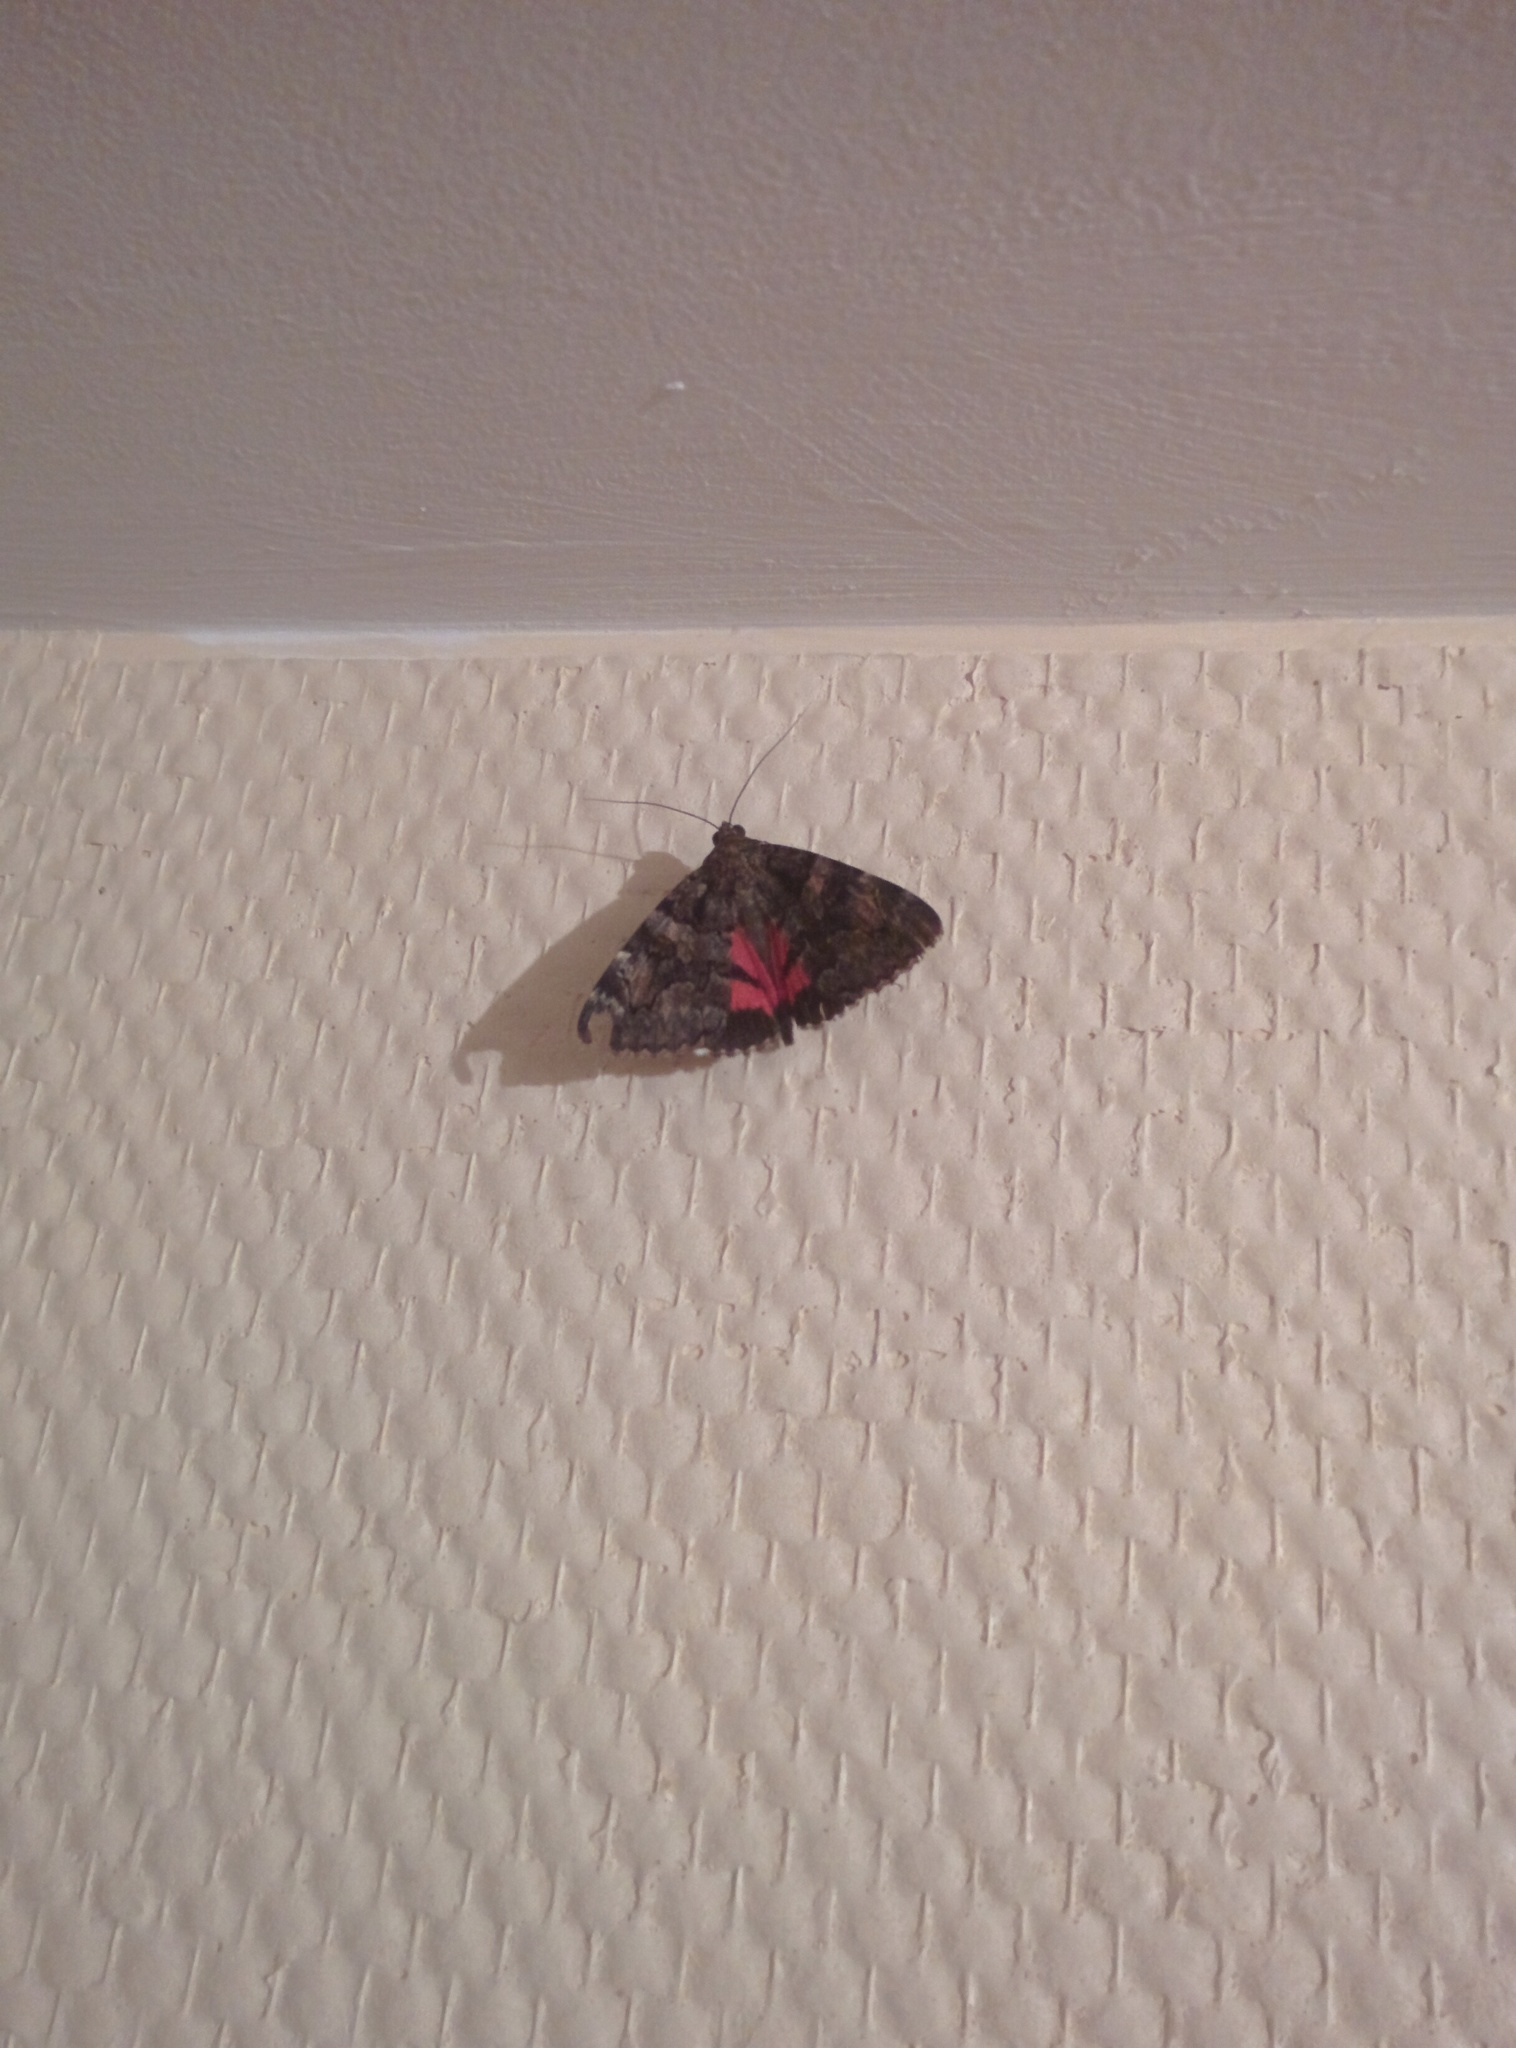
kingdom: Animalia
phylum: Arthropoda
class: Insecta
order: Lepidoptera
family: Erebidae
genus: Catocala
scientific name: Catocala coniuncta
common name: Minsmere crimson underwing
